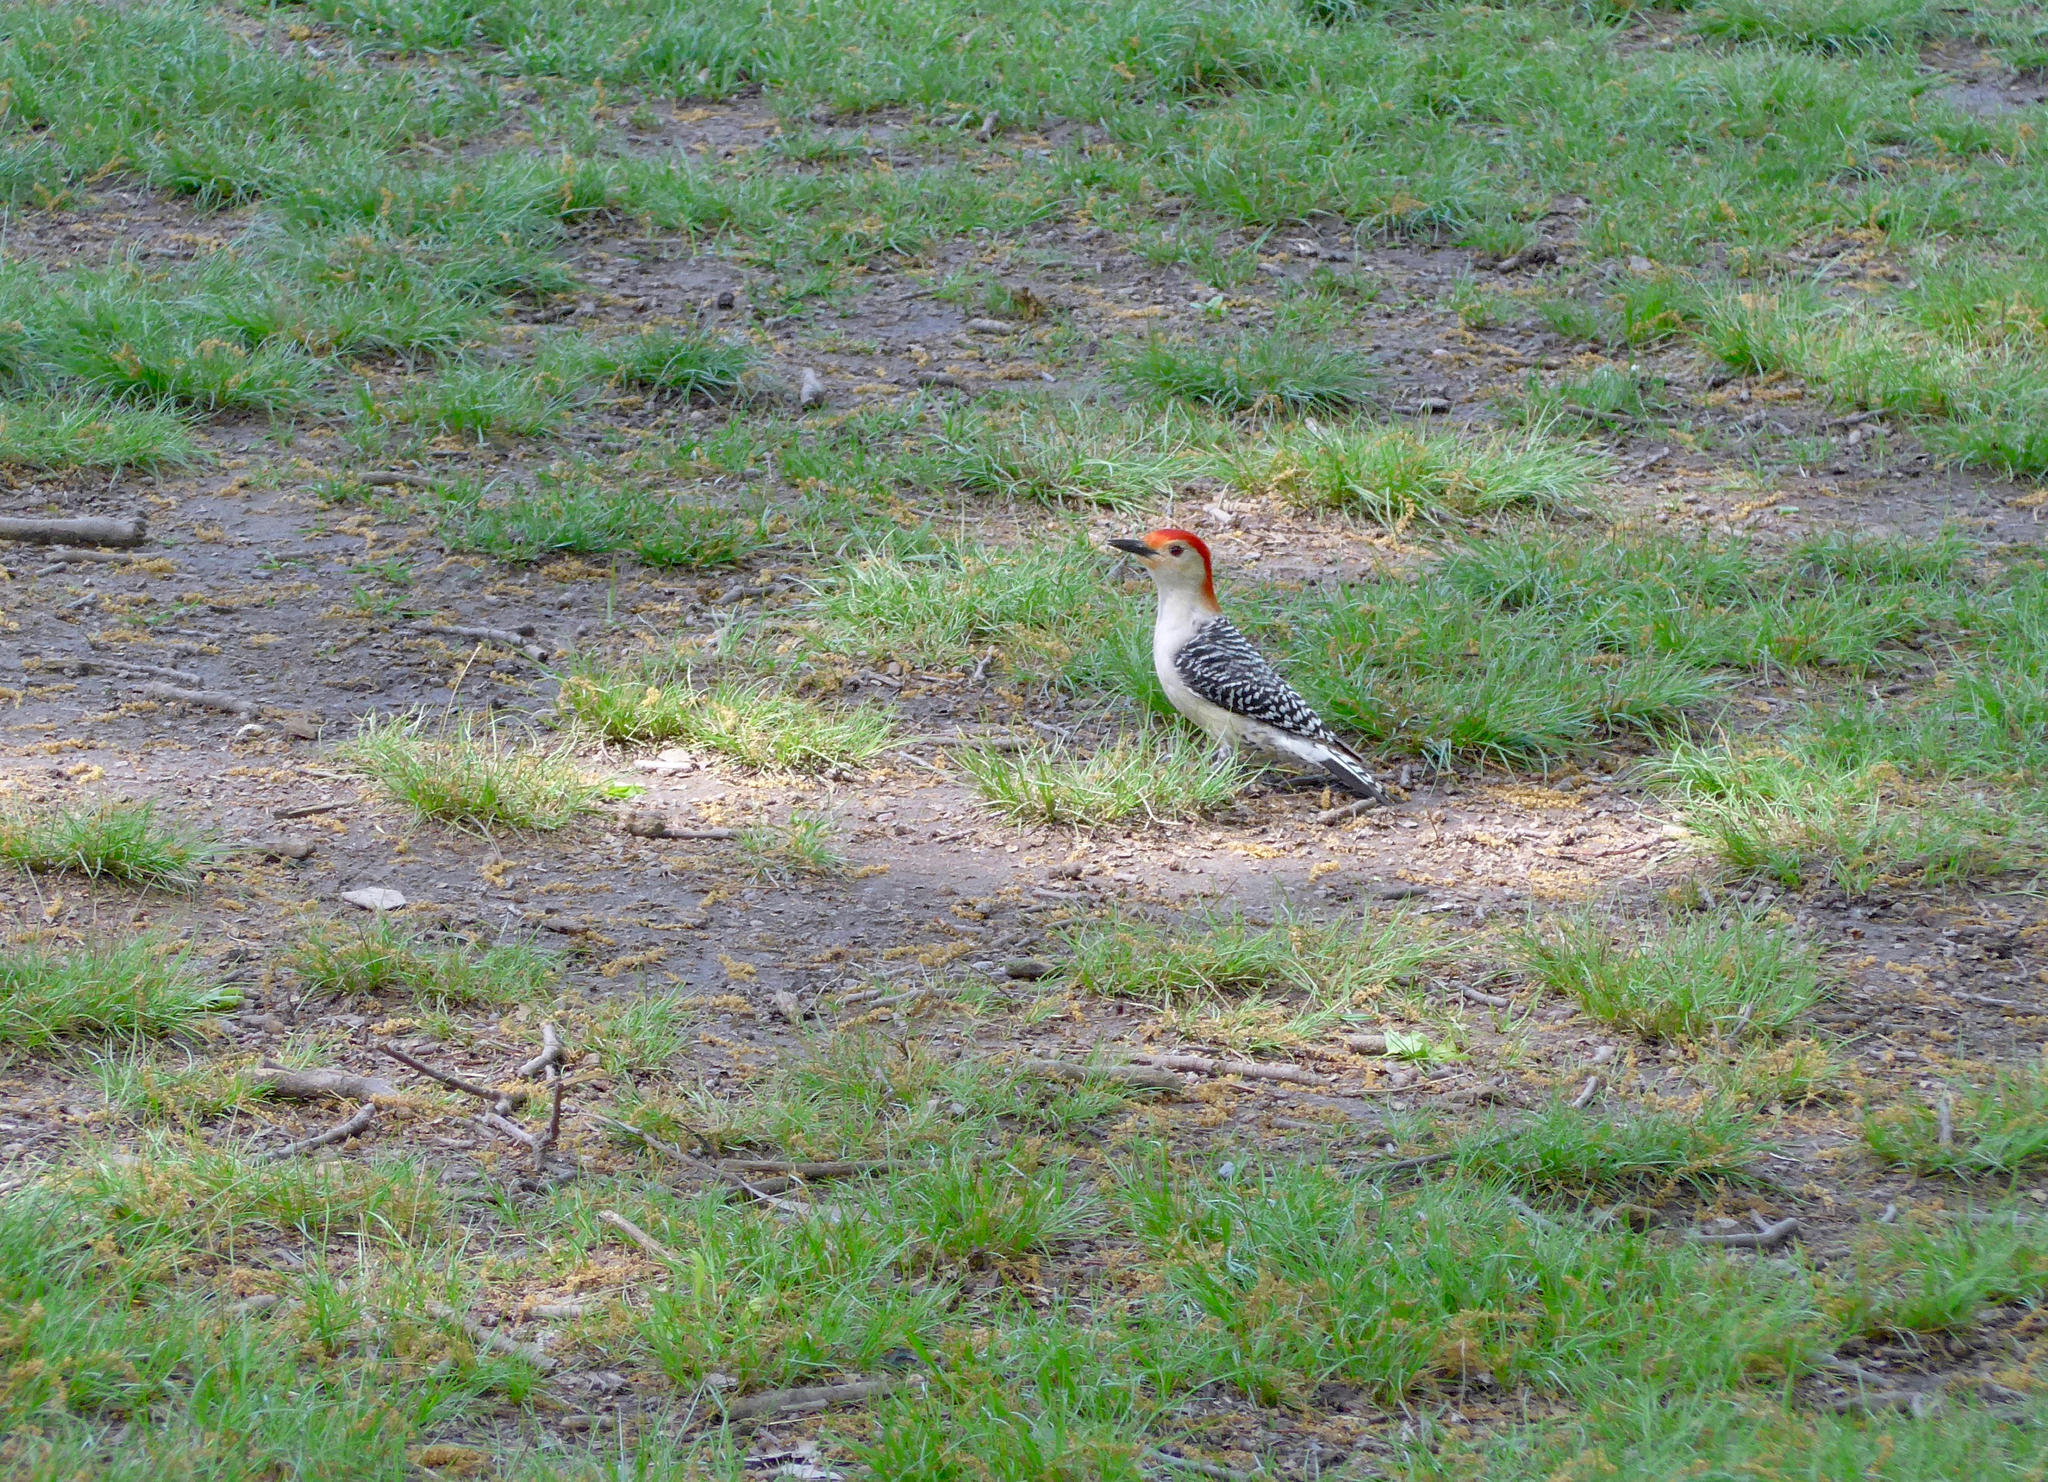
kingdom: Animalia
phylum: Chordata
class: Aves
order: Piciformes
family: Picidae
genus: Melanerpes
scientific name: Melanerpes carolinus
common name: Red-bellied woodpecker
